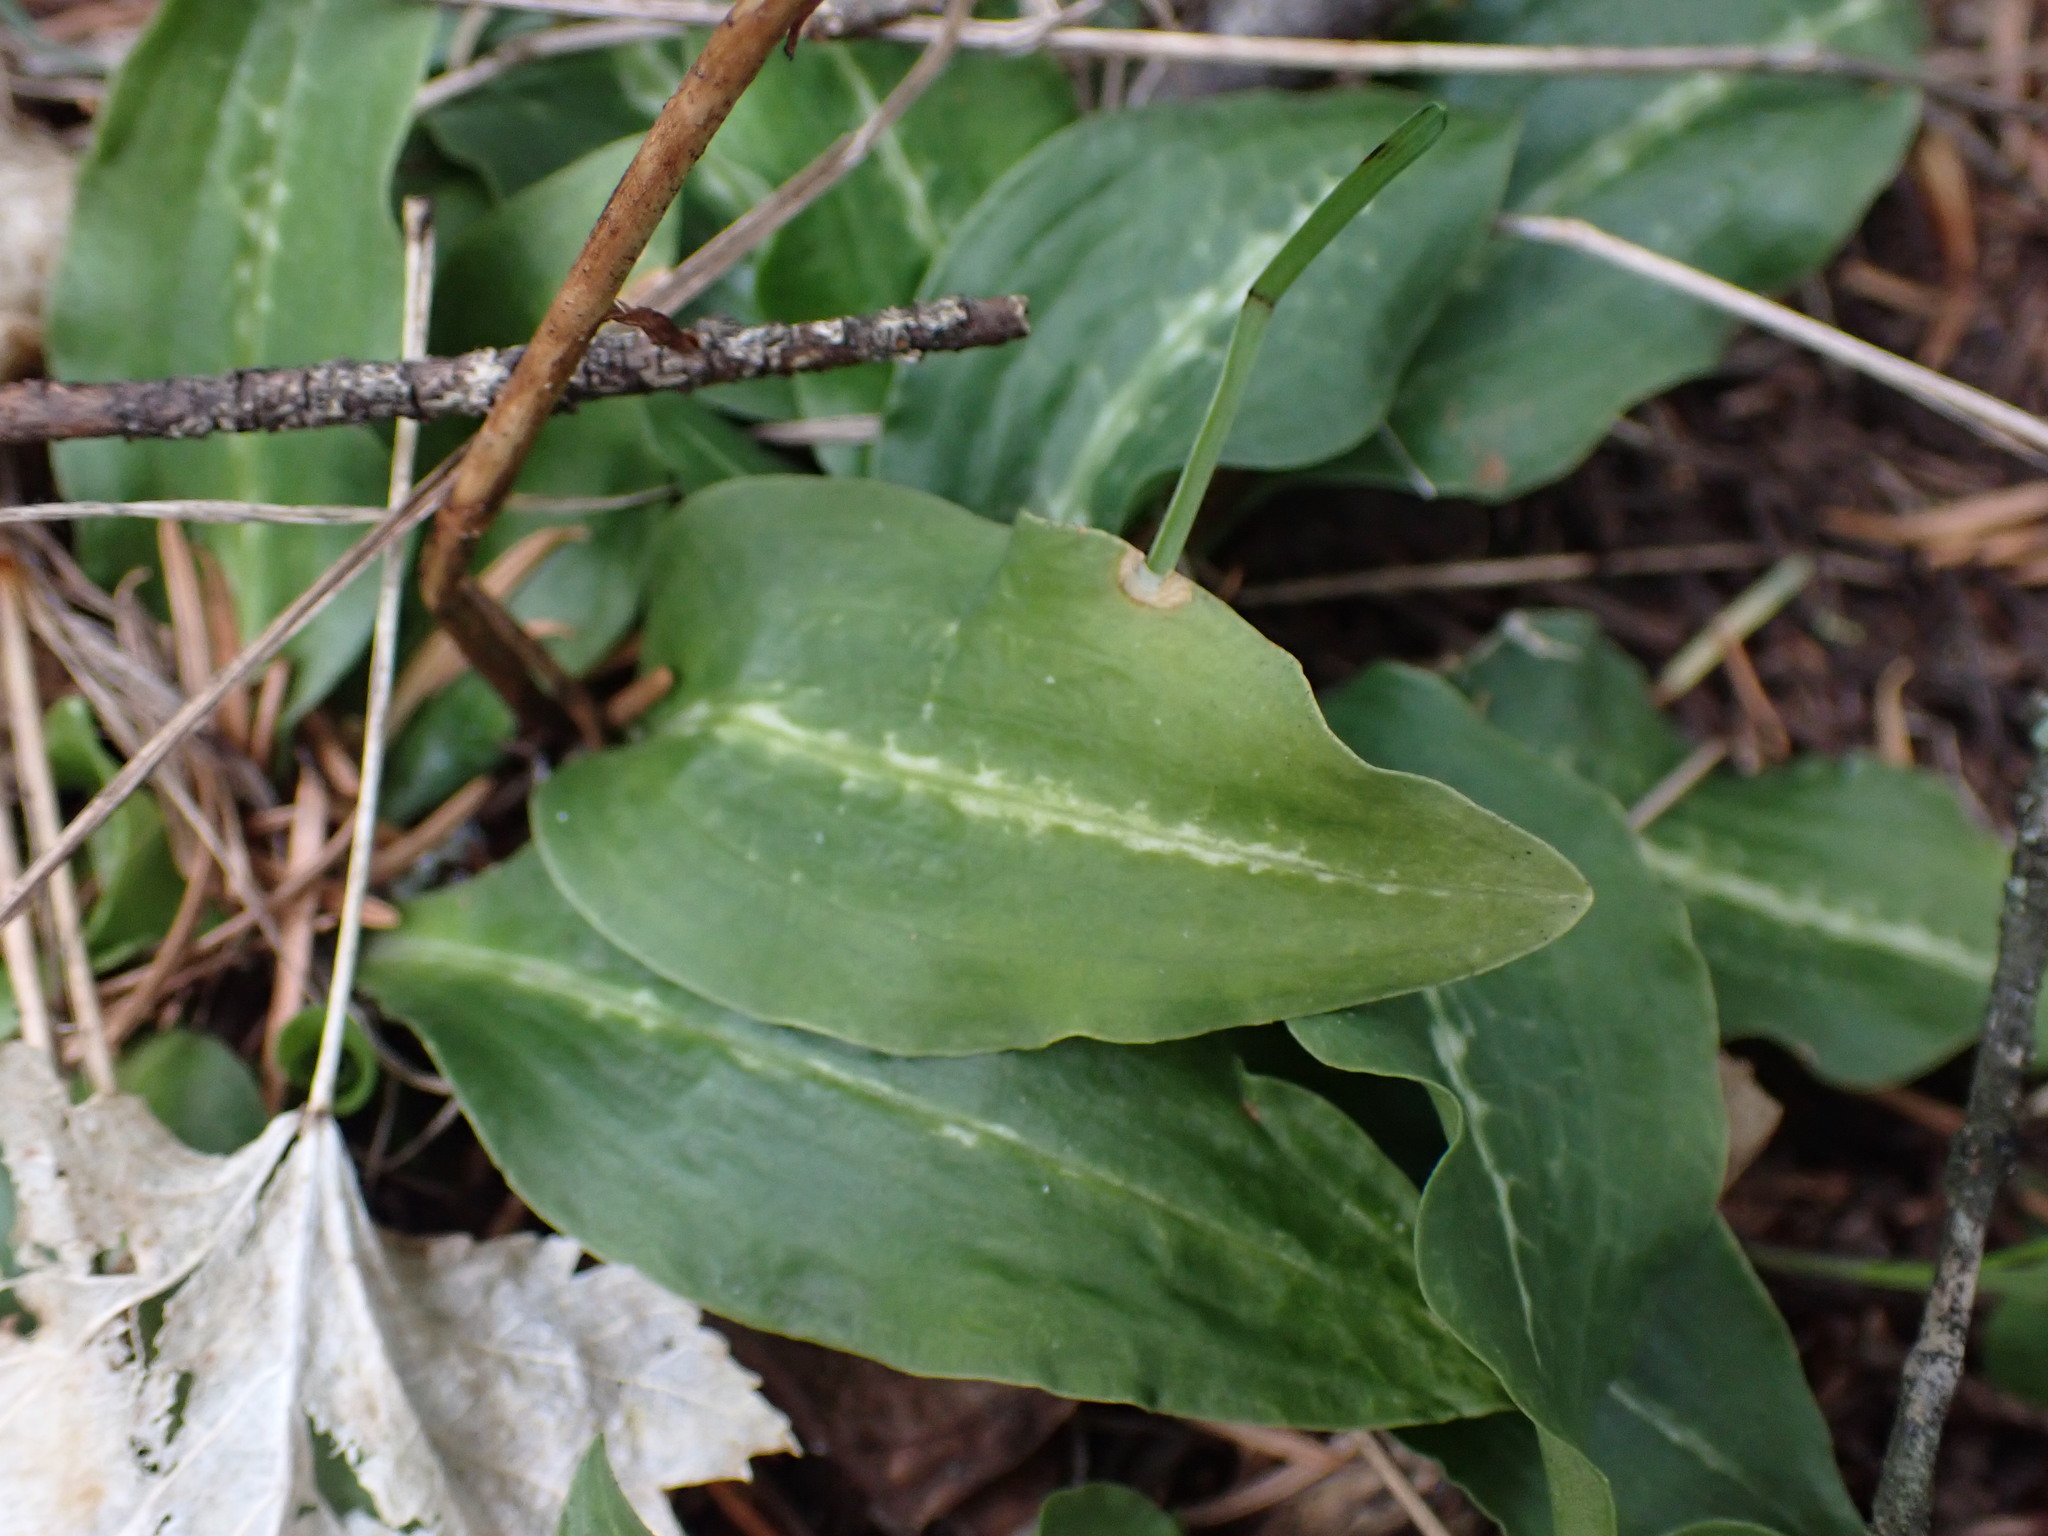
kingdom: Plantae
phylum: Tracheophyta
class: Liliopsida
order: Asparagales
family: Orchidaceae
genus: Goodyera
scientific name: Goodyera oblongifolia
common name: Giant rattlesnake-plantain
